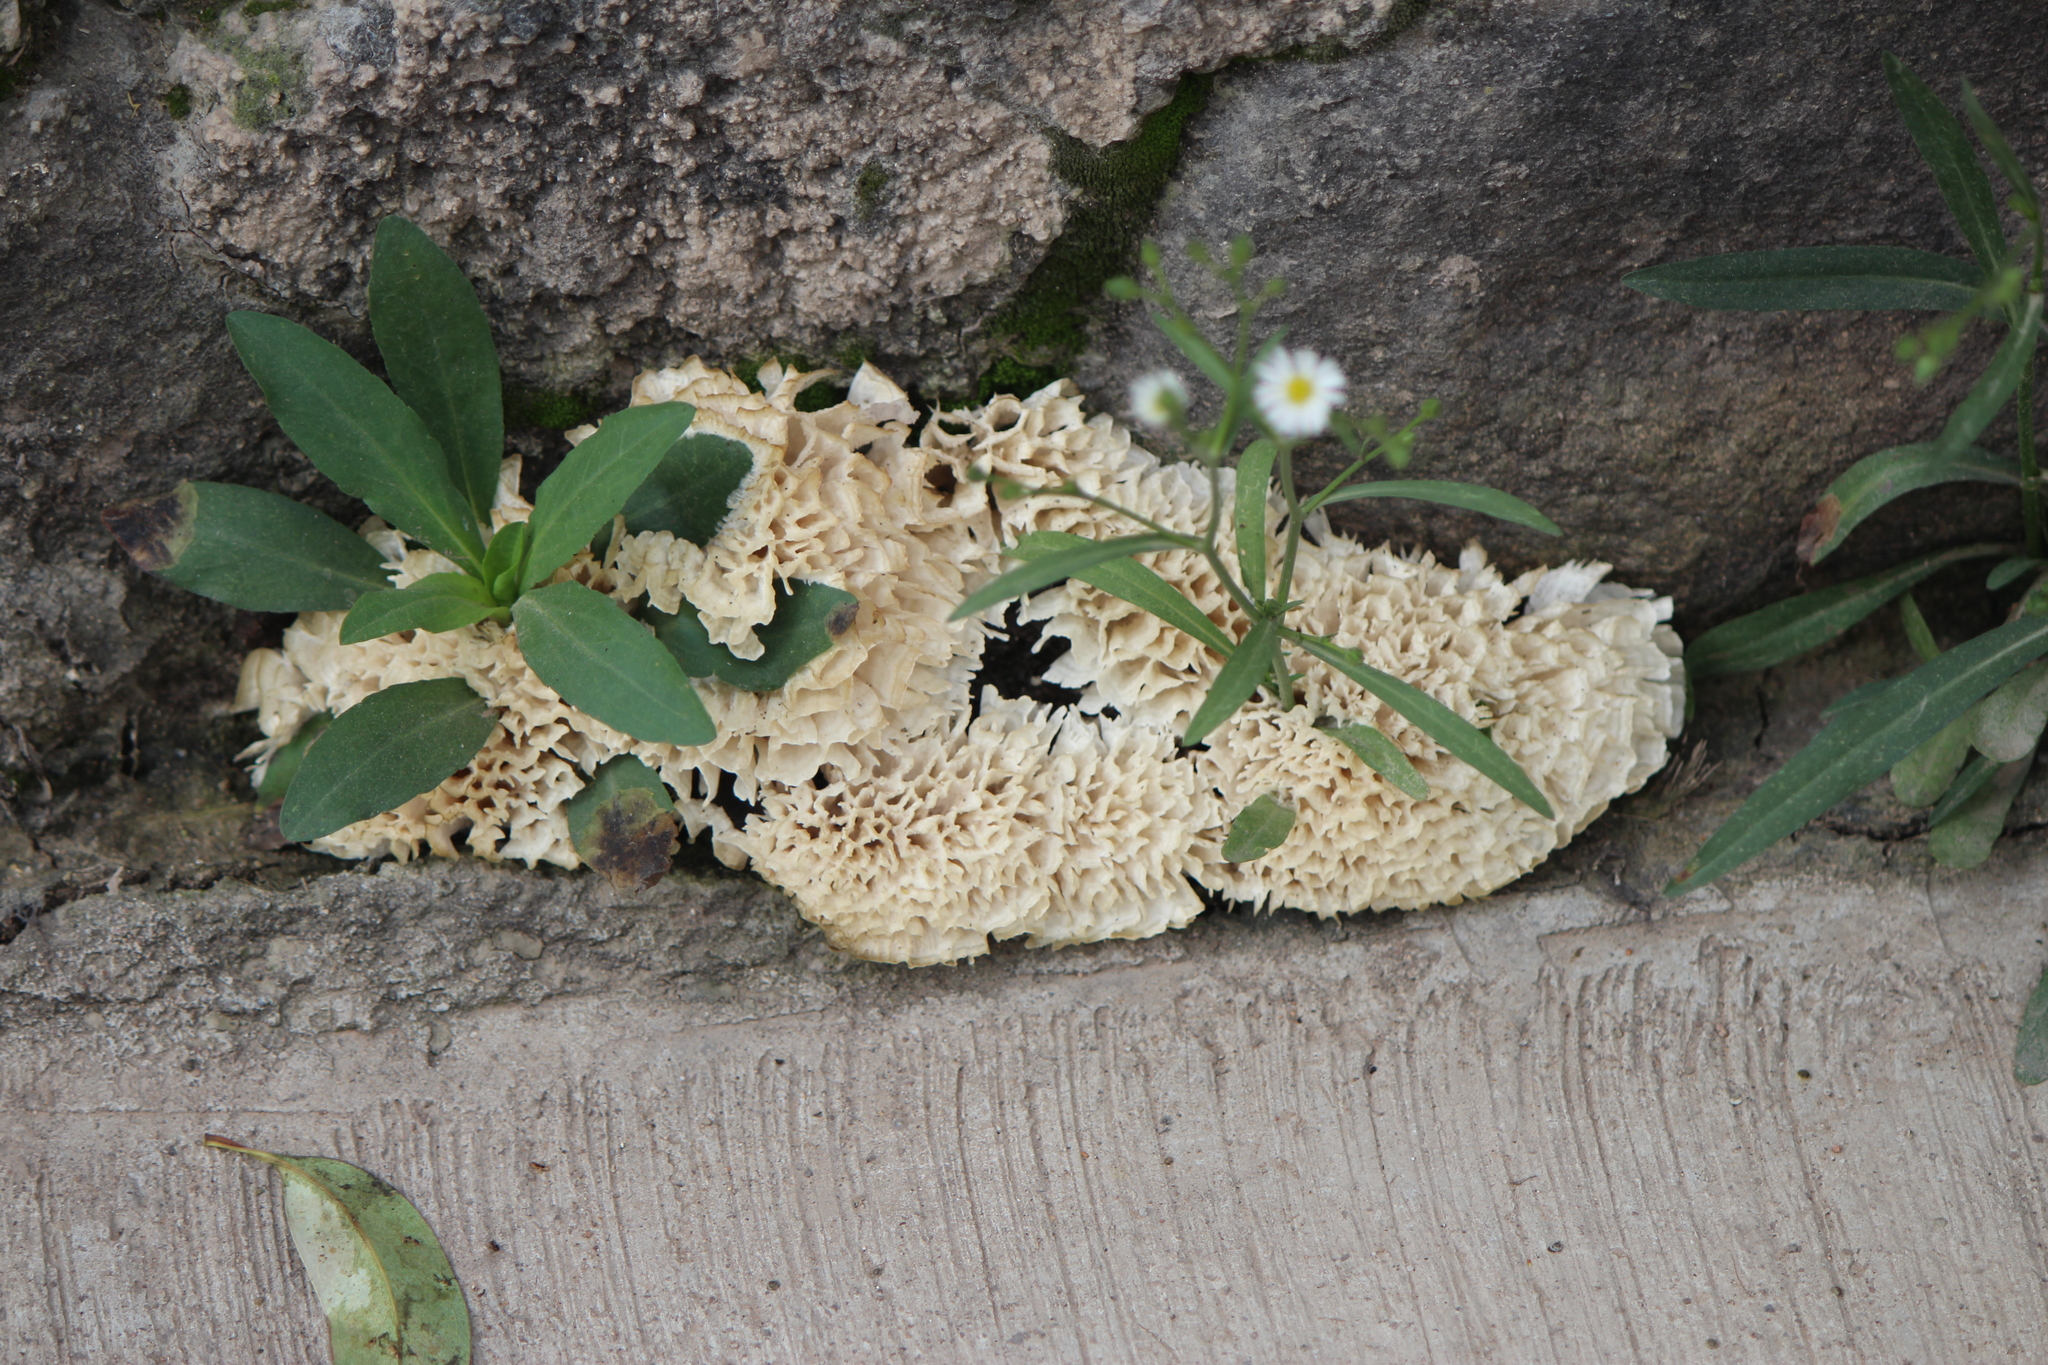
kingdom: Fungi
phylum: Basidiomycota
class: Agaricomycetes
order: Polyporales
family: Irpicaceae
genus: Irpex
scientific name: Irpex rosettiformis
